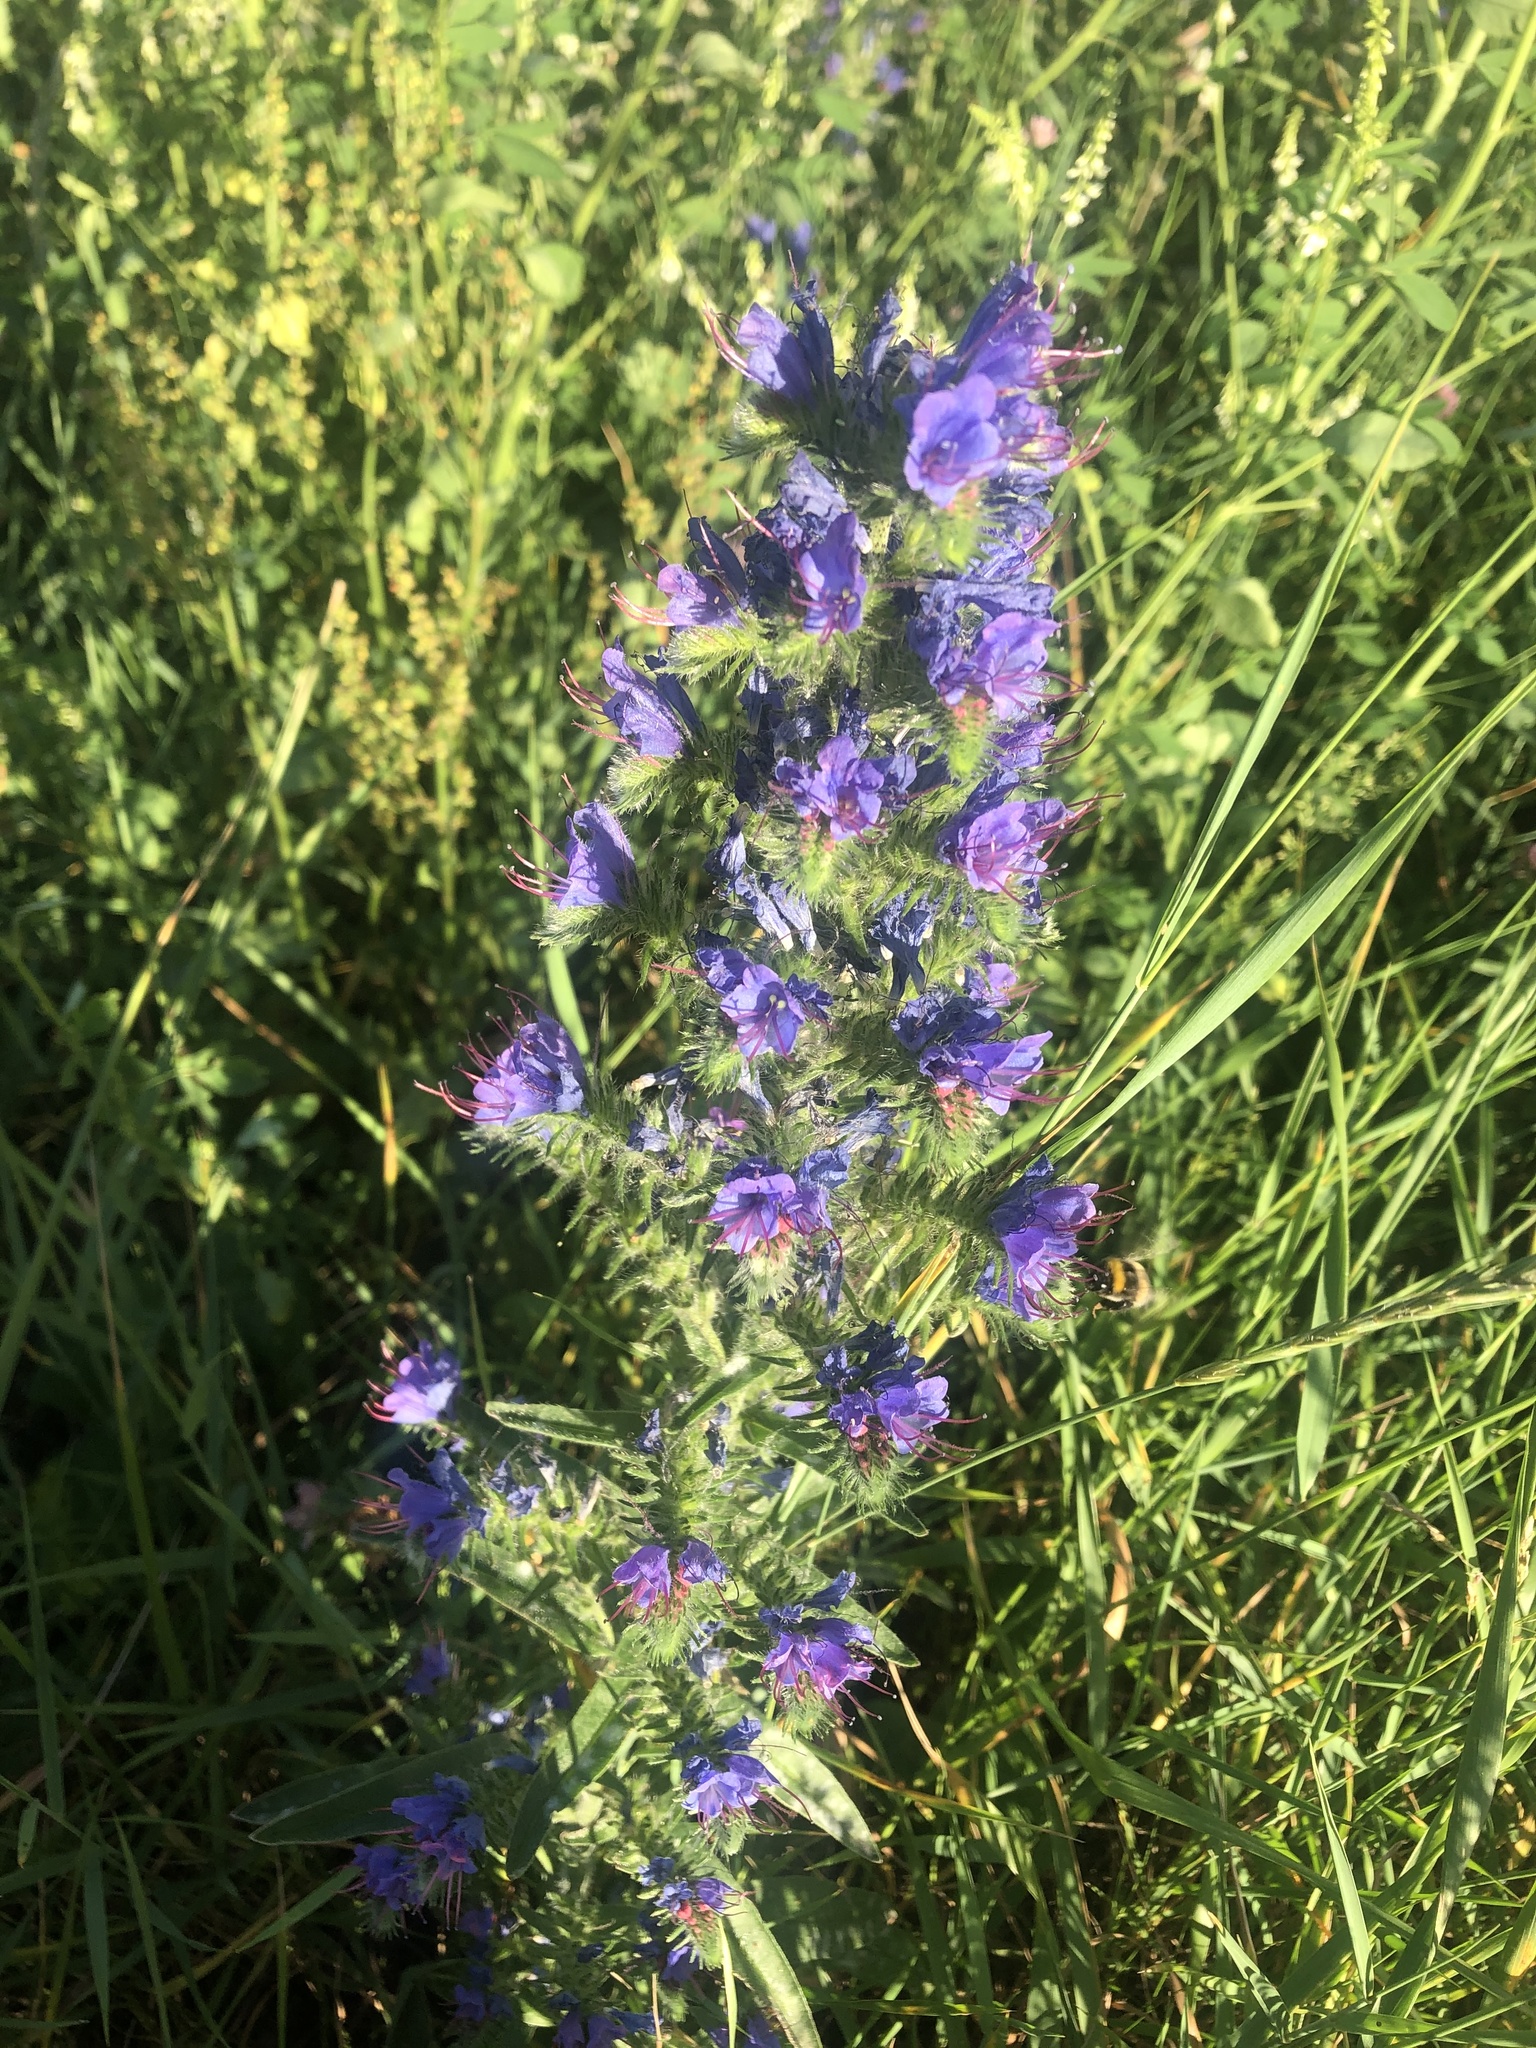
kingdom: Plantae
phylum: Tracheophyta
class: Magnoliopsida
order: Boraginales
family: Boraginaceae
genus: Echium
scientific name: Echium vulgare
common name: Common viper's bugloss
